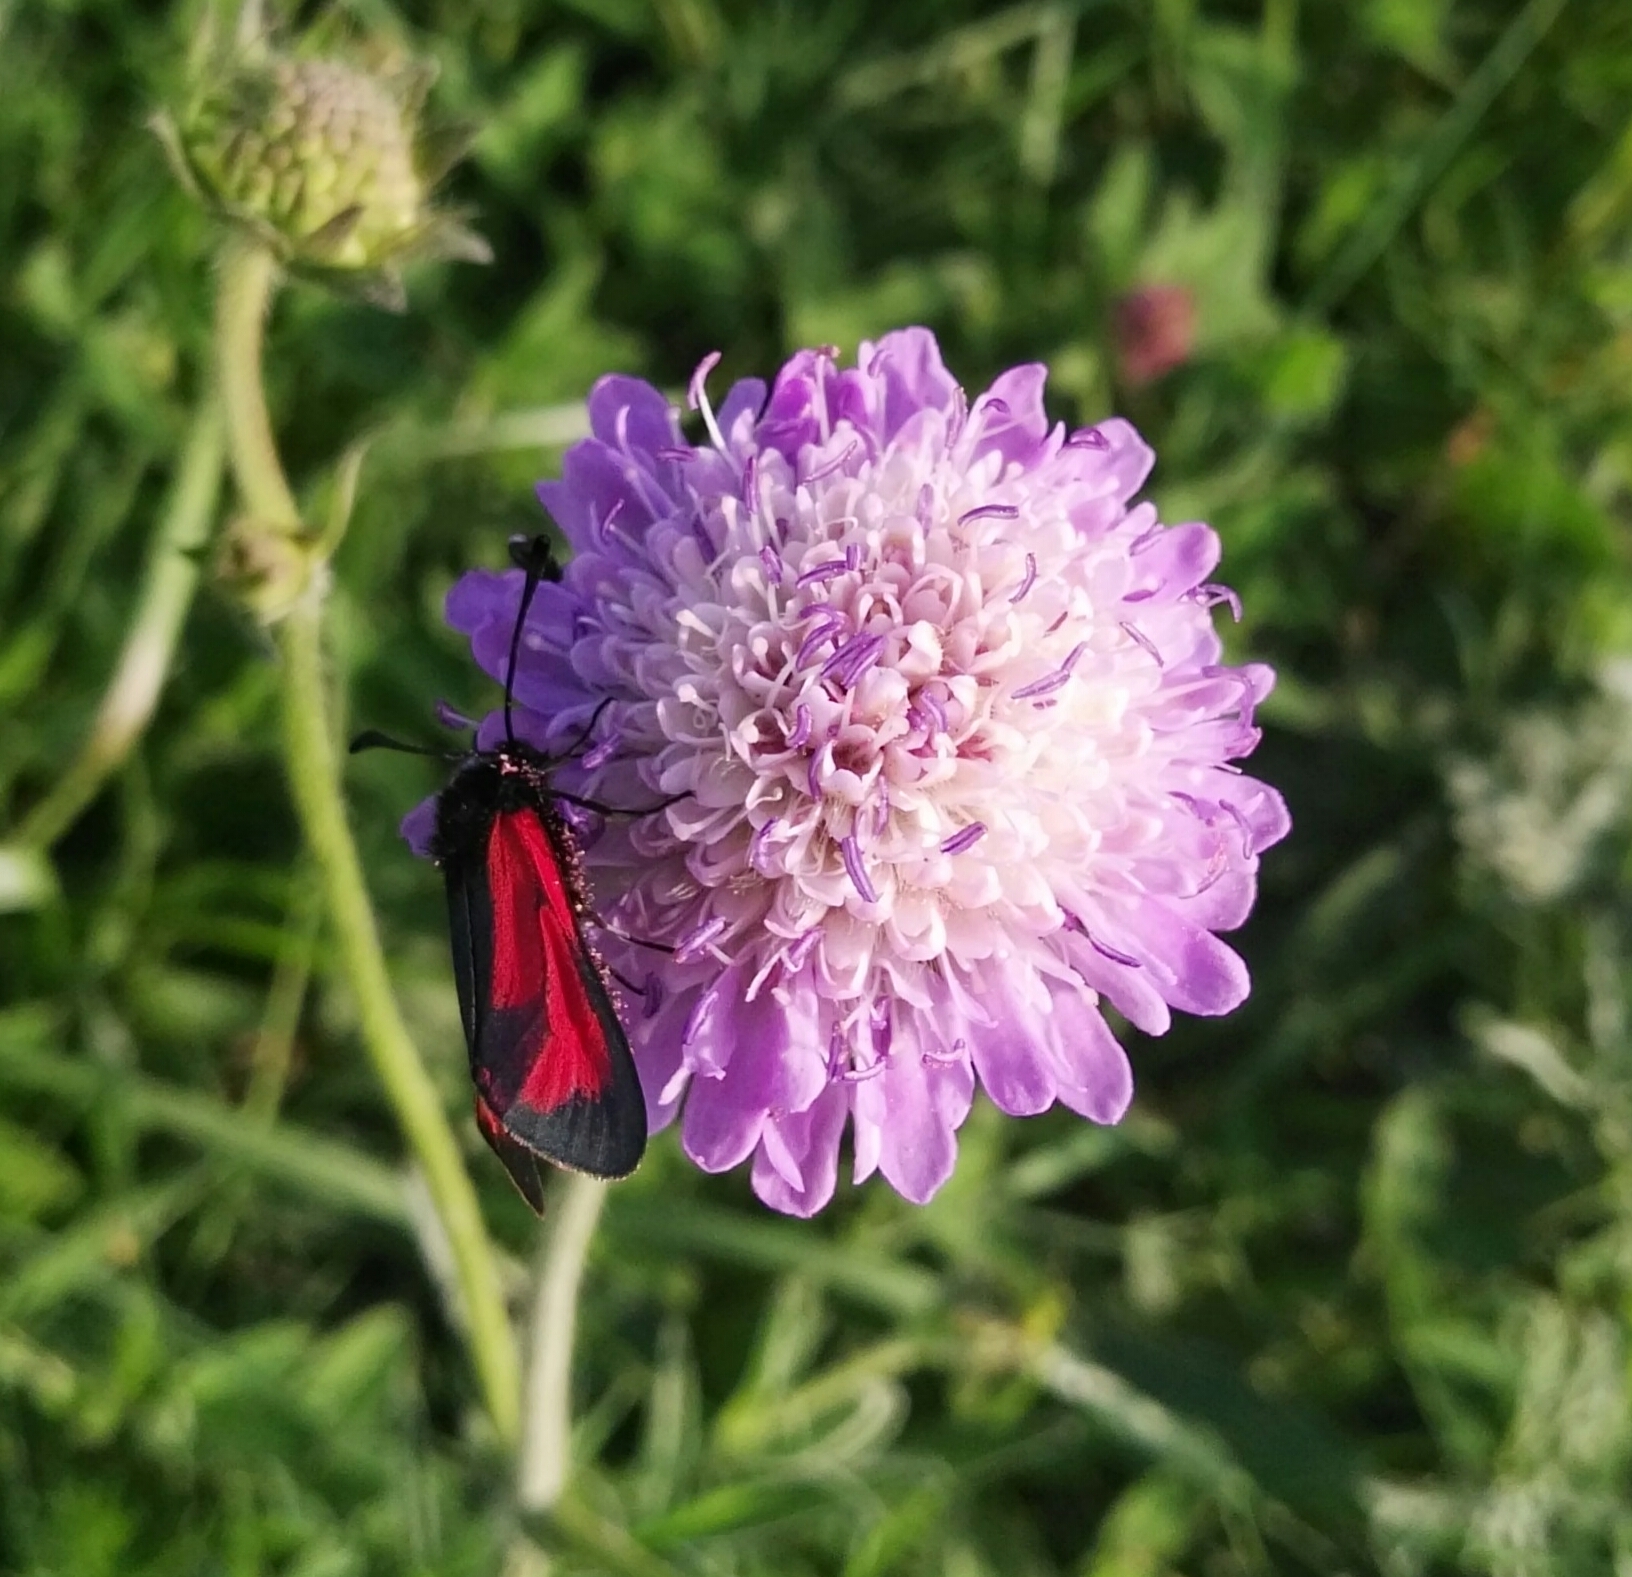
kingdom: Animalia
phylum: Arthropoda
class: Insecta
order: Lepidoptera
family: Zygaenidae
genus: Zygaena
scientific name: Zygaena
